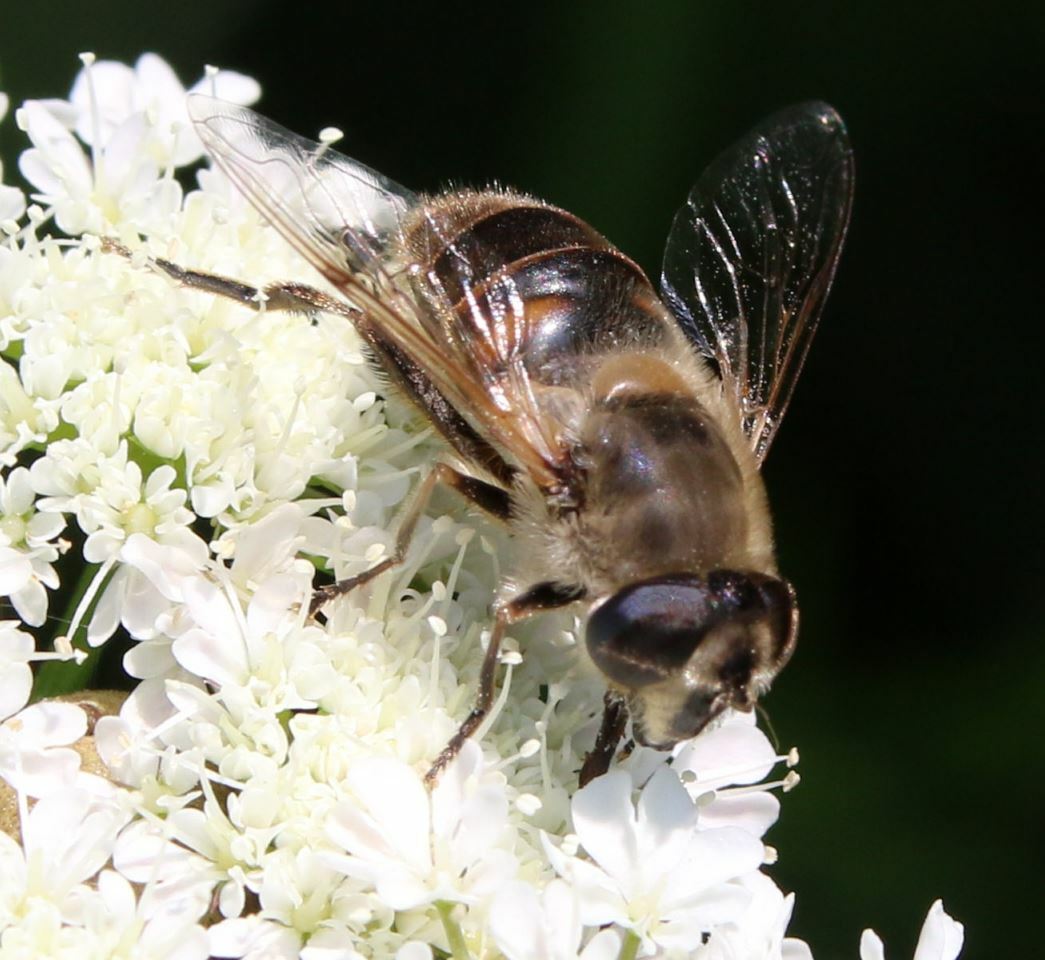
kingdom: Animalia
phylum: Arthropoda
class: Insecta
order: Diptera
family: Syrphidae
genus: Eristalis
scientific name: Eristalis tenax
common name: Drone fly
